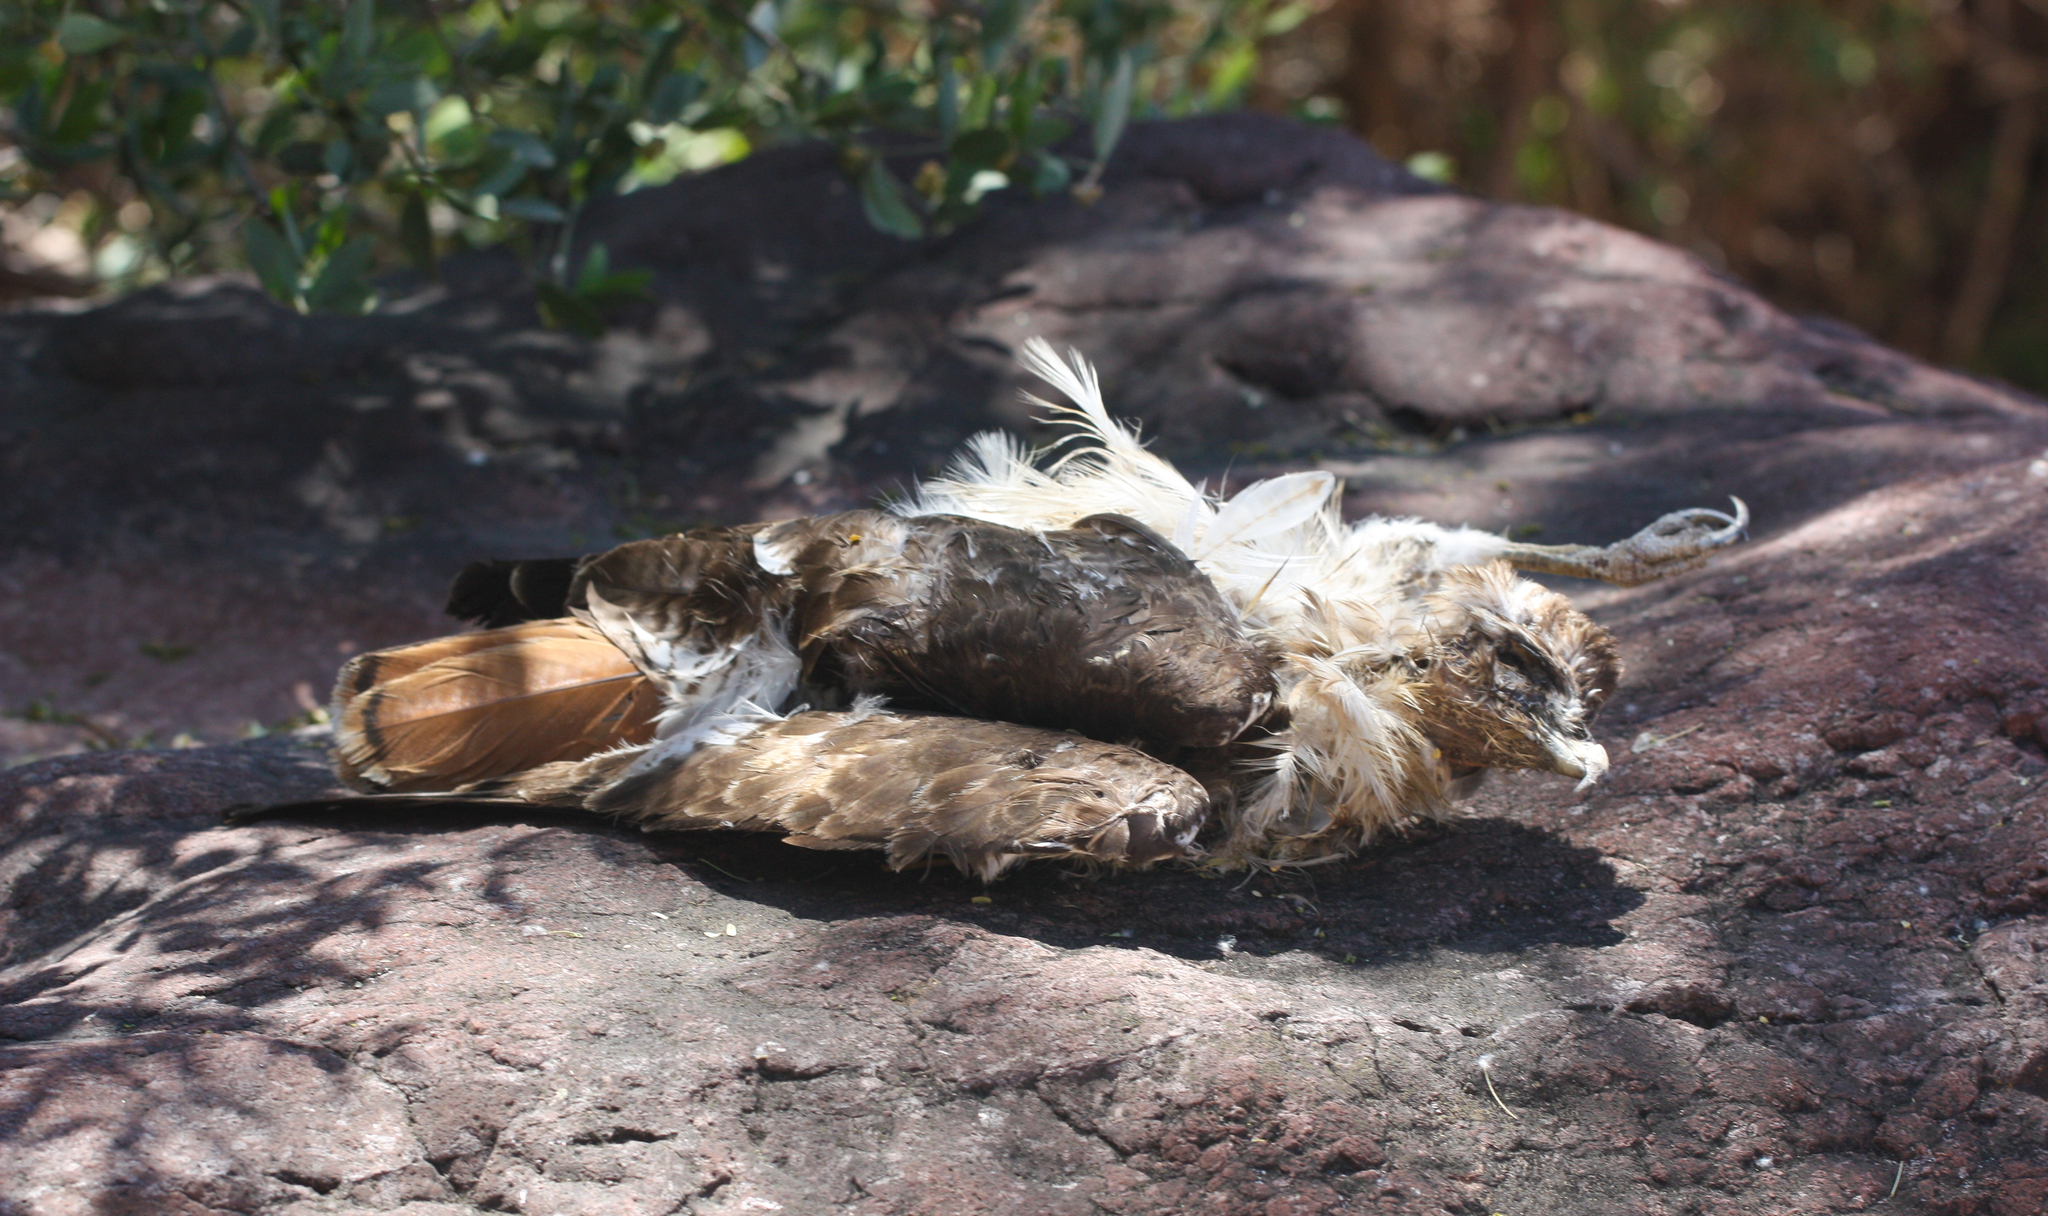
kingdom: Animalia
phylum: Chordata
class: Aves
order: Accipitriformes
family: Accipitridae
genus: Buteo
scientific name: Buteo jamaicensis
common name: Red-tailed hawk
